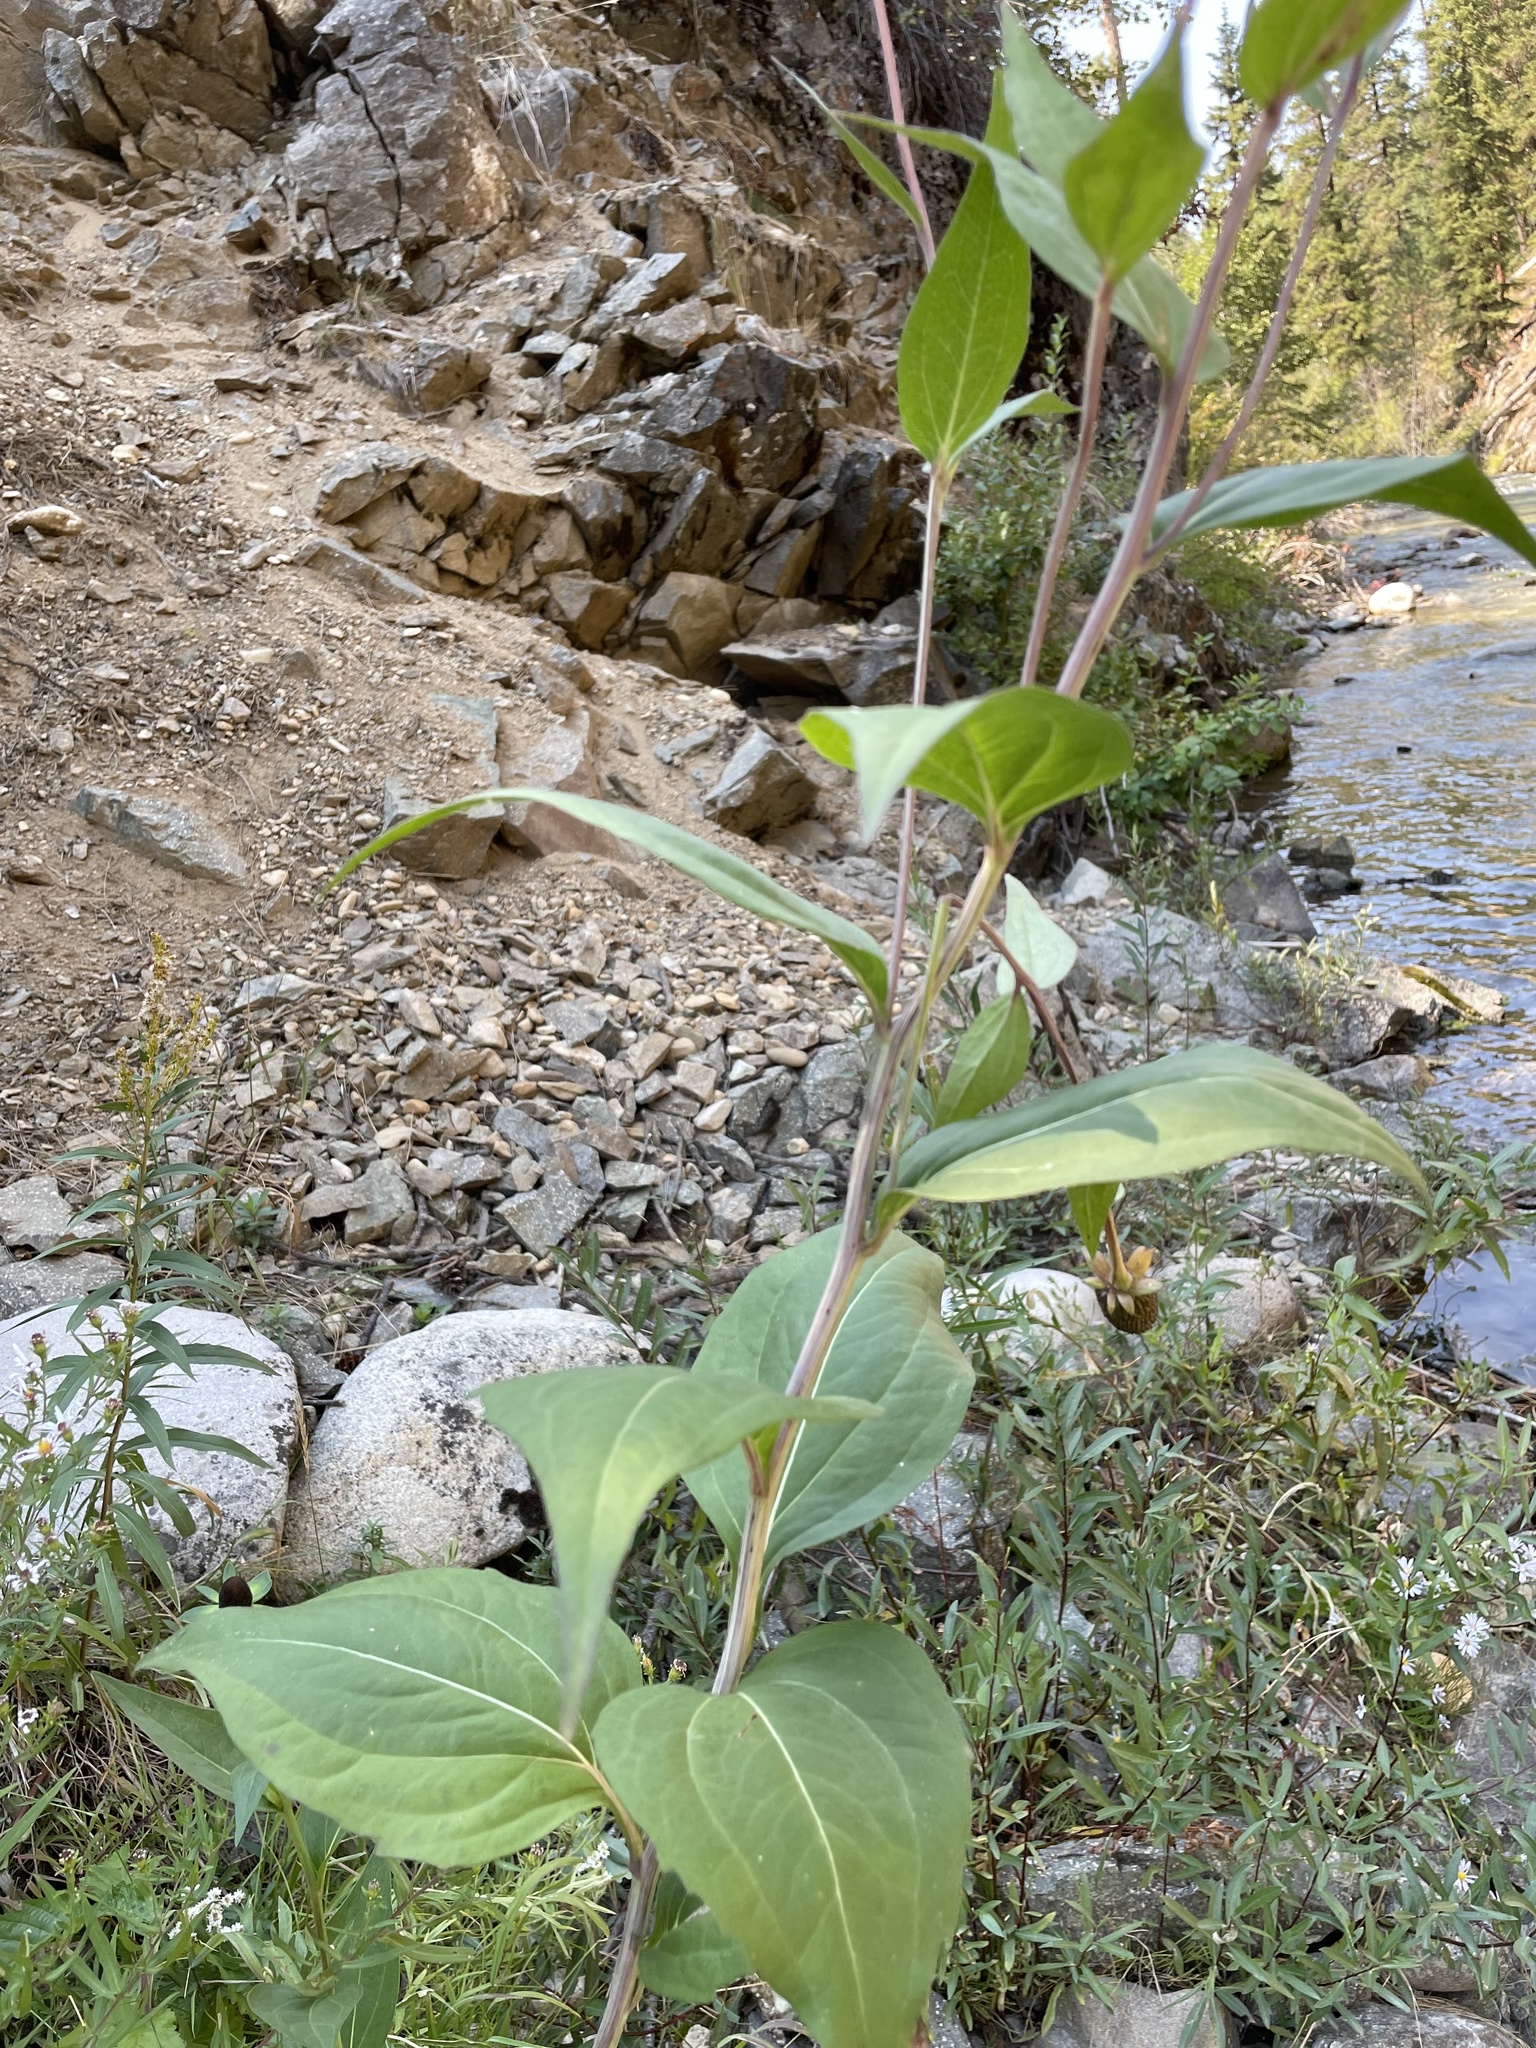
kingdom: Plantae
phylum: Tracheophyta
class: Magnoliopsida
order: Asterales
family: Asteraceae
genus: Rudbeckia
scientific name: Rudbeckia occidentalis
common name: Western coneflower
